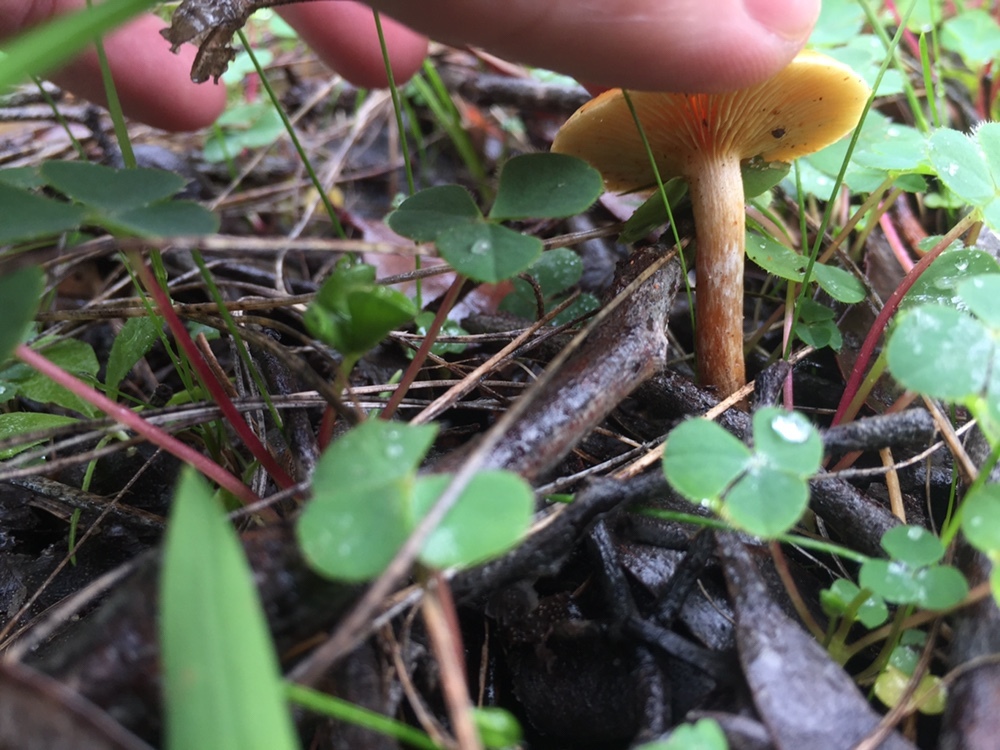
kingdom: Fungi
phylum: Basidiomycota
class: Agaricomycetes
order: Agaricales
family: Hymenogastraceae
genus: Gymnopilus
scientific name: Gymnopilus allantopus
